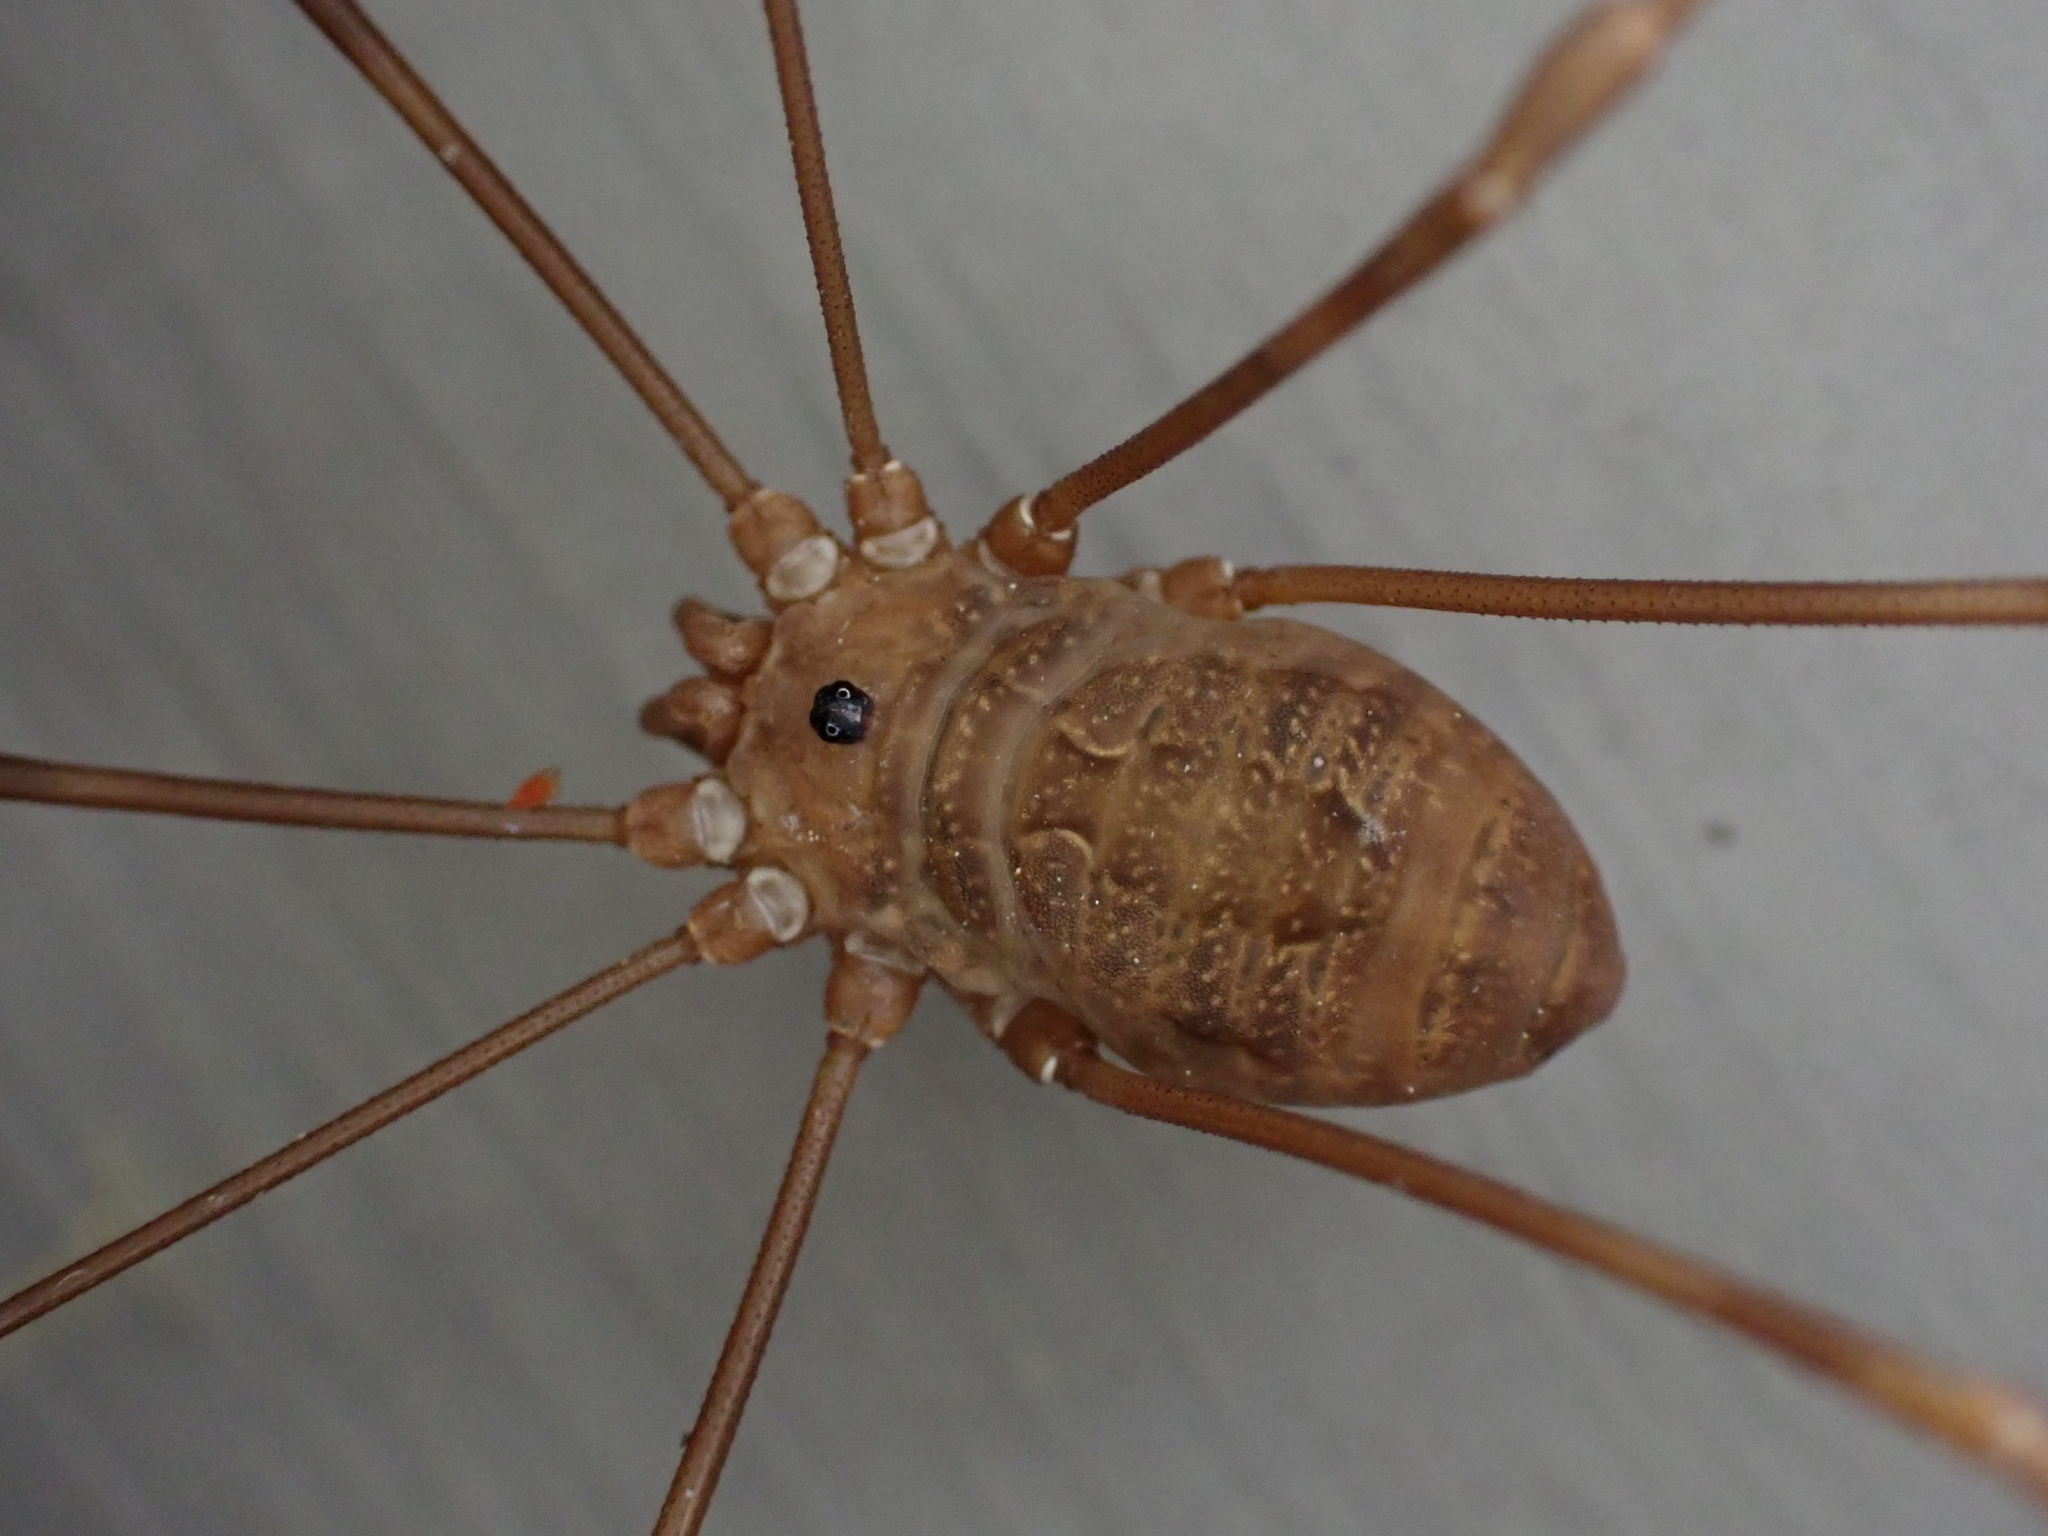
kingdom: Animalia
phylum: Arthropoda
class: Arachnida
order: Opiliones
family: Sclerosomatidae
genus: Leiobunum
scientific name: Leiobunum ventricosum
